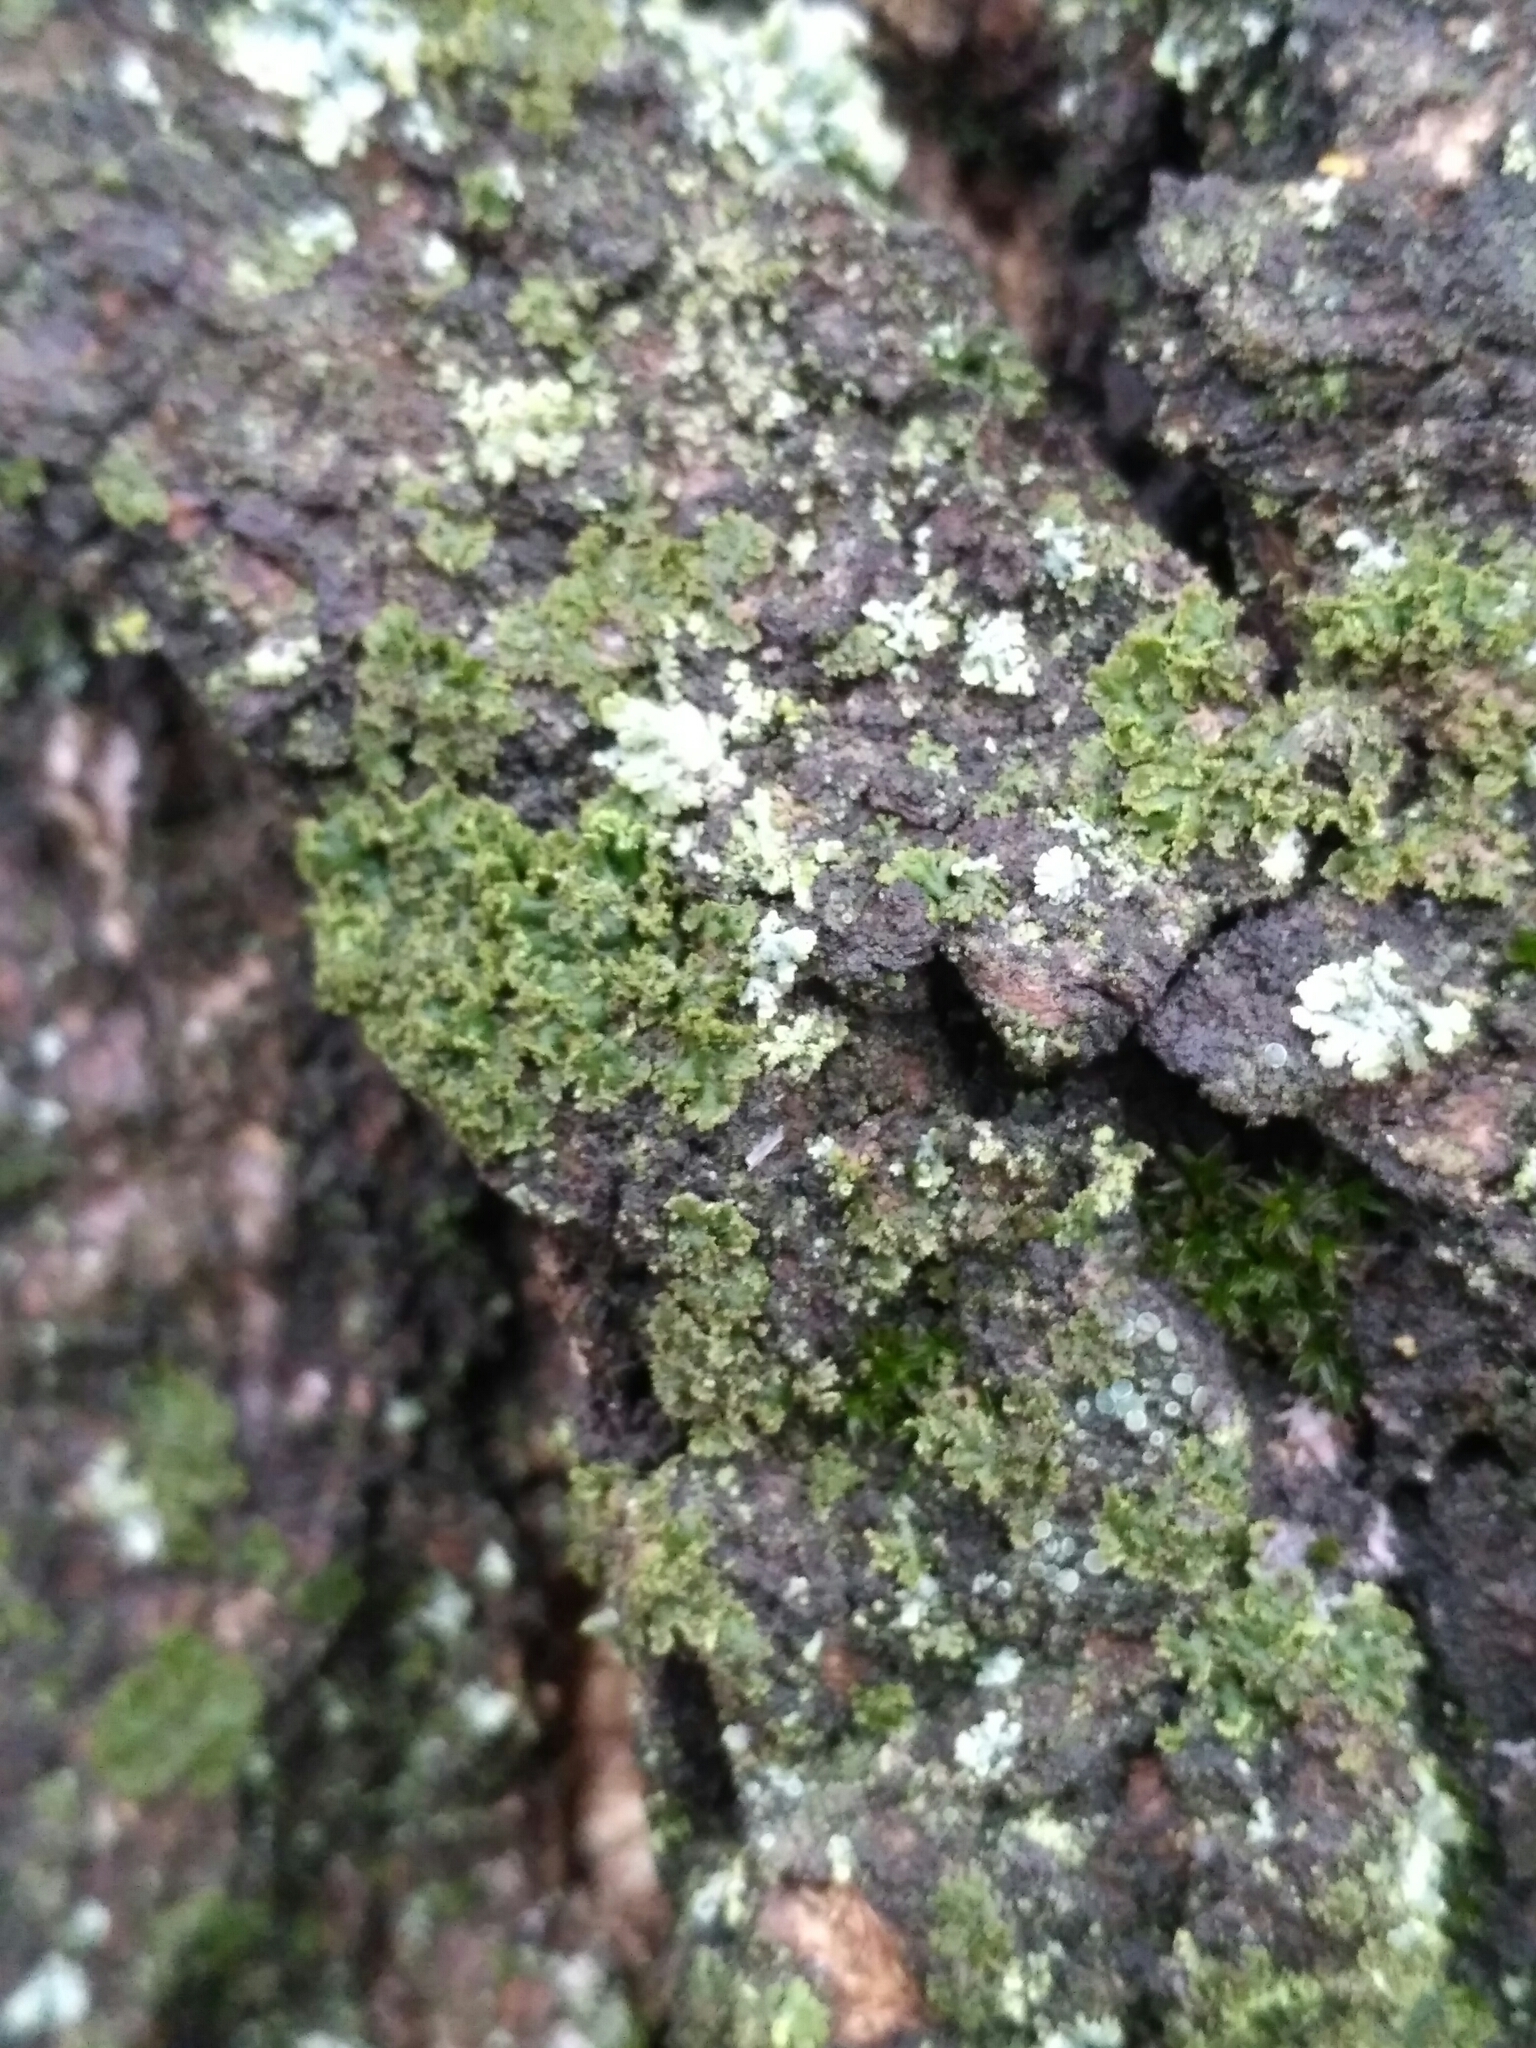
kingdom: Fungi
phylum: Ascomycota
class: Lecanoromycetes
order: Caliciales
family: Physciaceae
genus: Physciella
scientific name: Physciella nigricans
